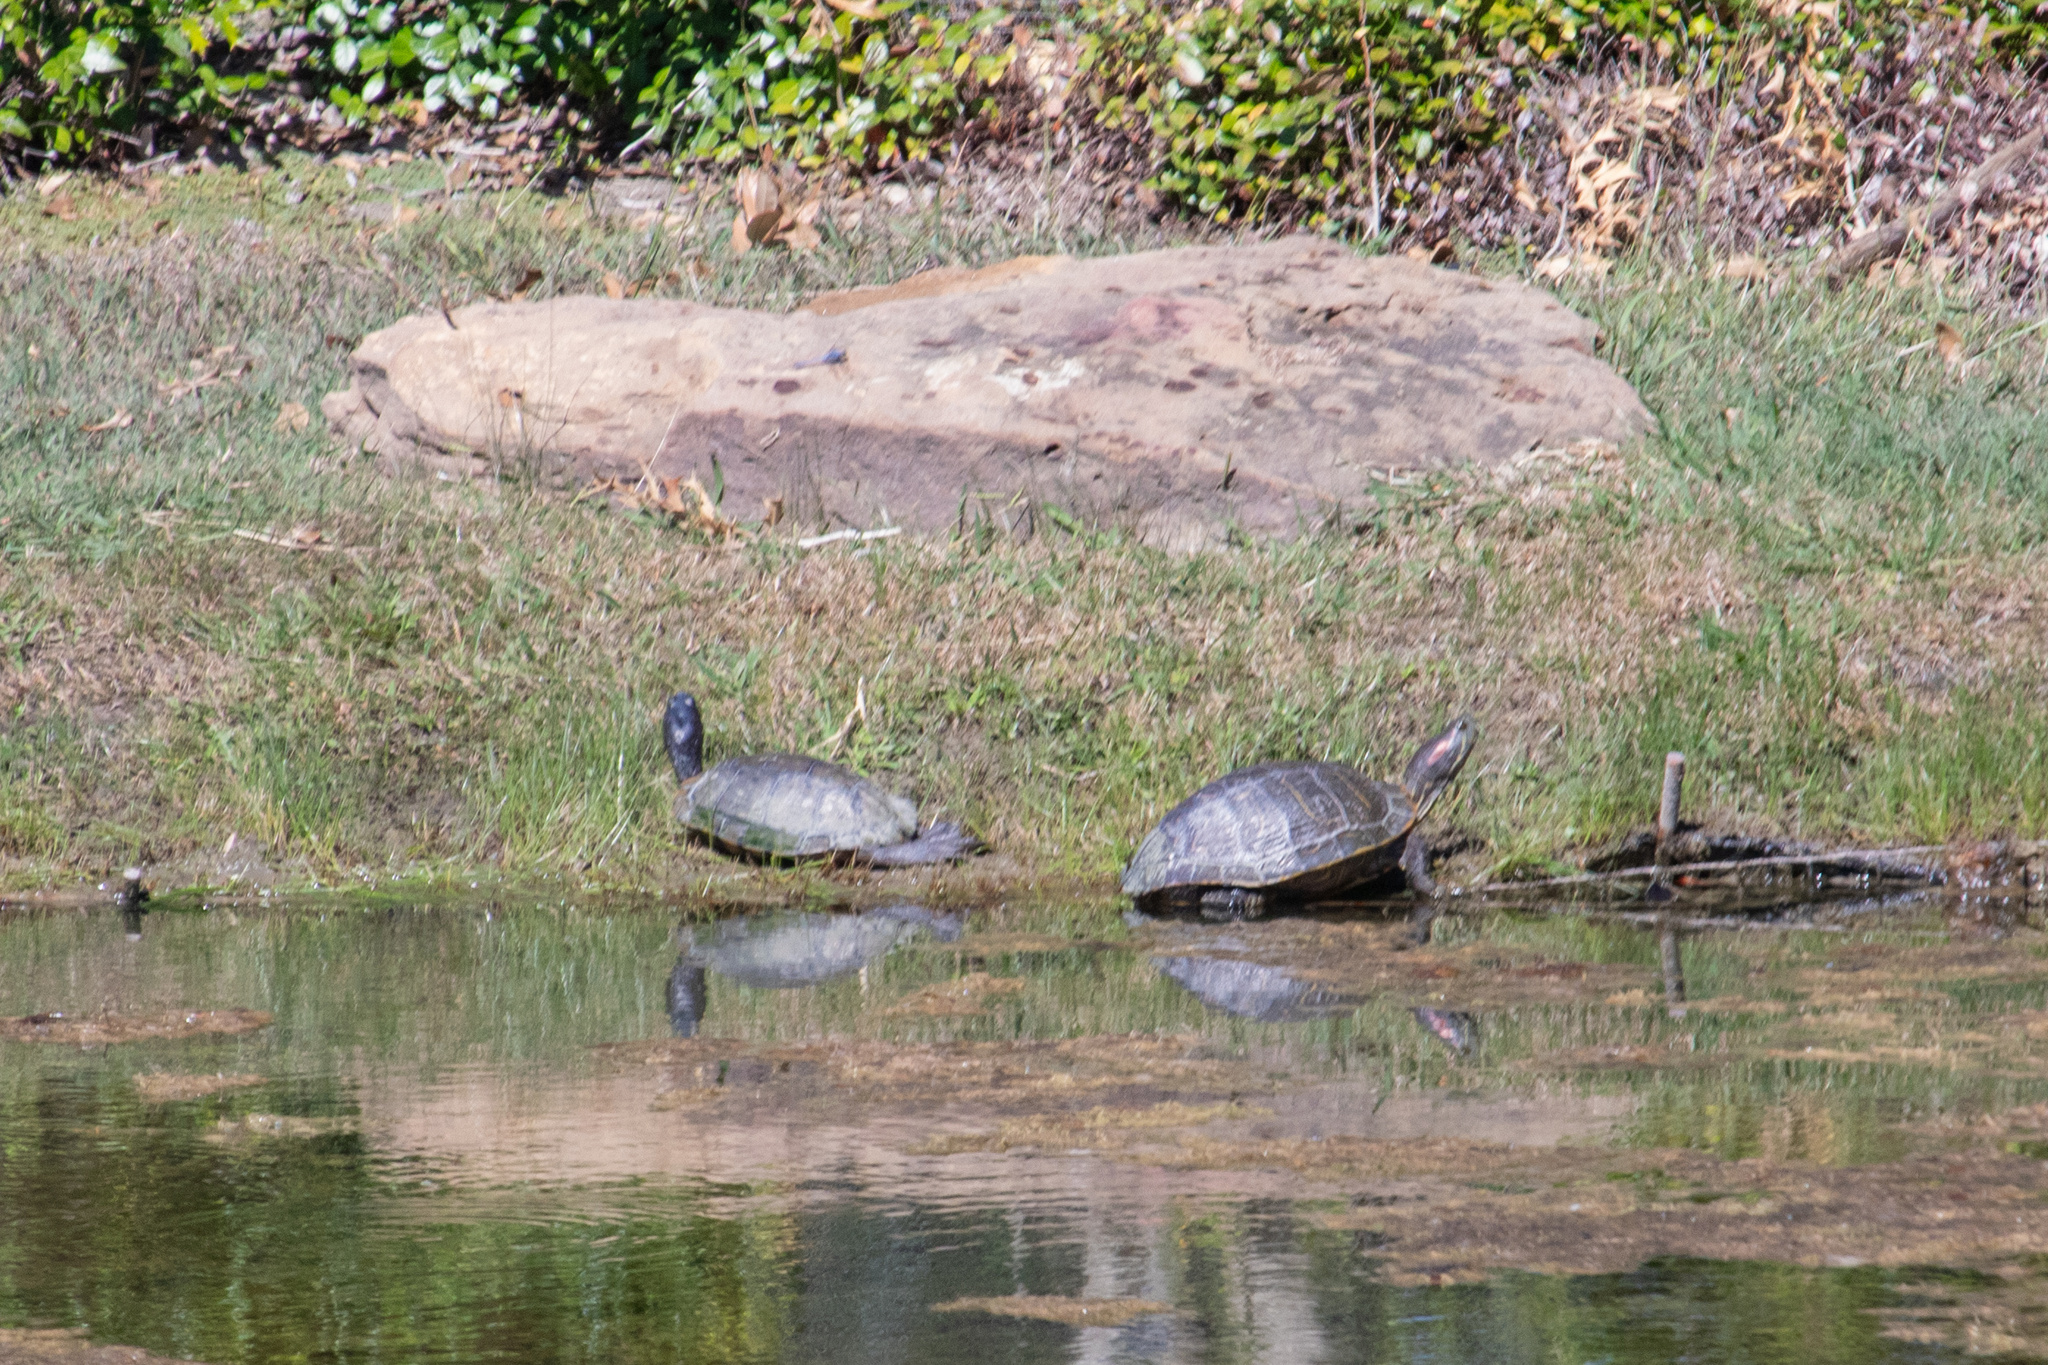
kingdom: Animalia
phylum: Chordata
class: Testudines
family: Emydidae
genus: Trachemys
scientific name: Trachemys scripta
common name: Slider
